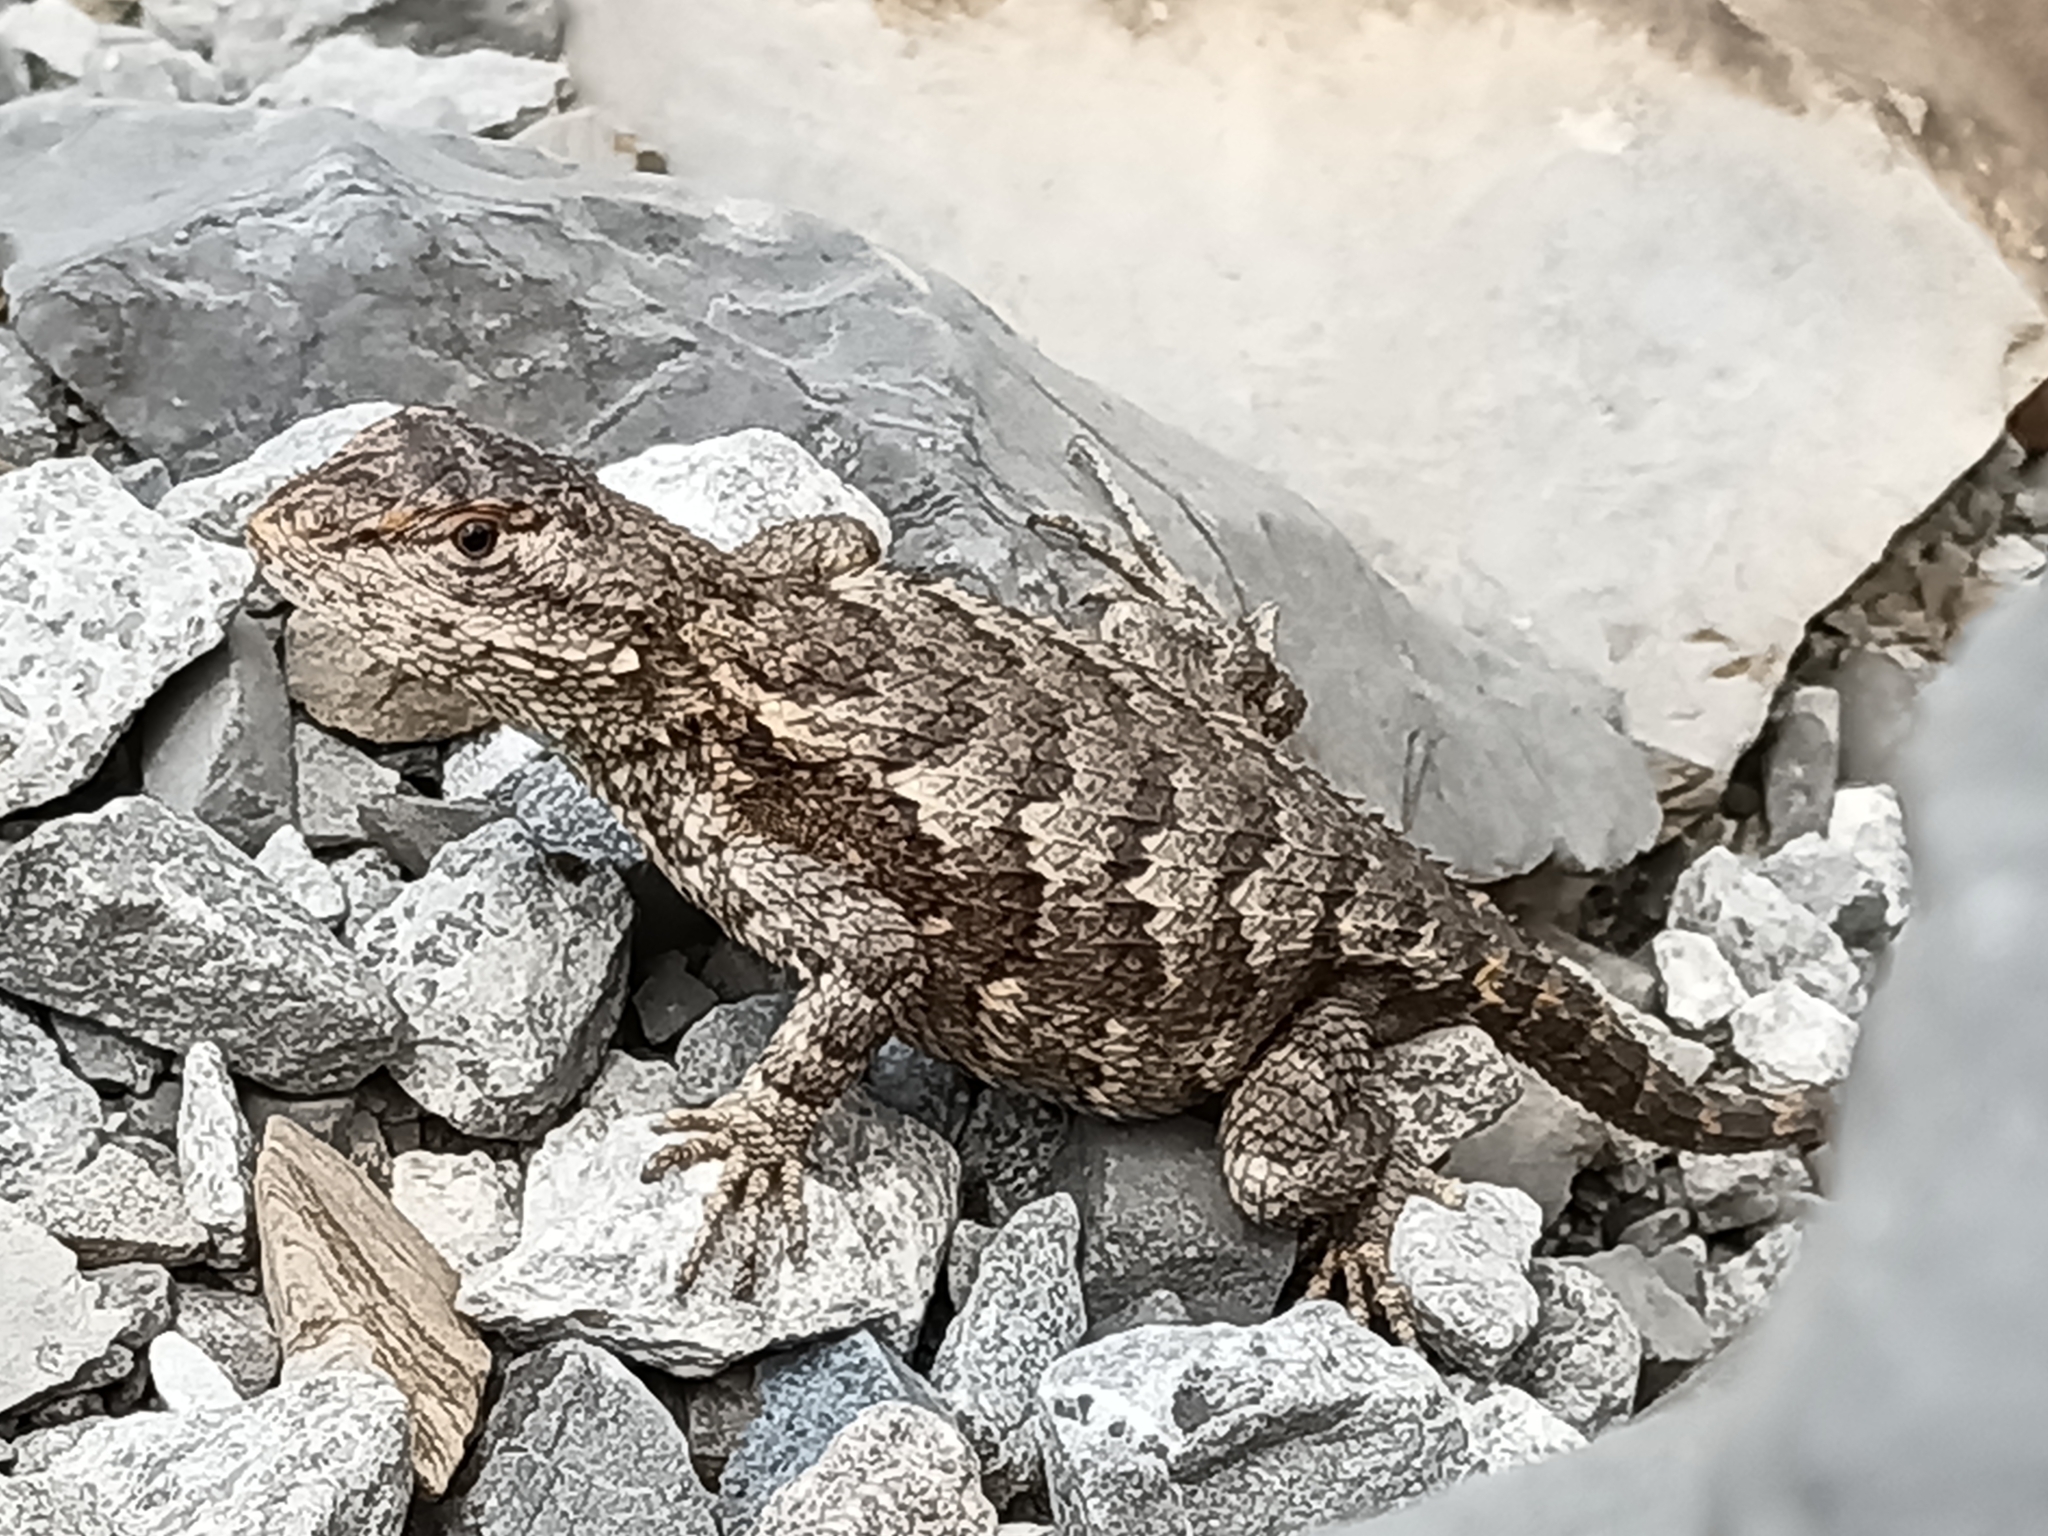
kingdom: Animalia
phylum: Chordata
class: Squamata
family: Phrynosomatidae
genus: Sceloporus
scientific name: Sceloporus consobrinus
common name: Southern prairie lizard
